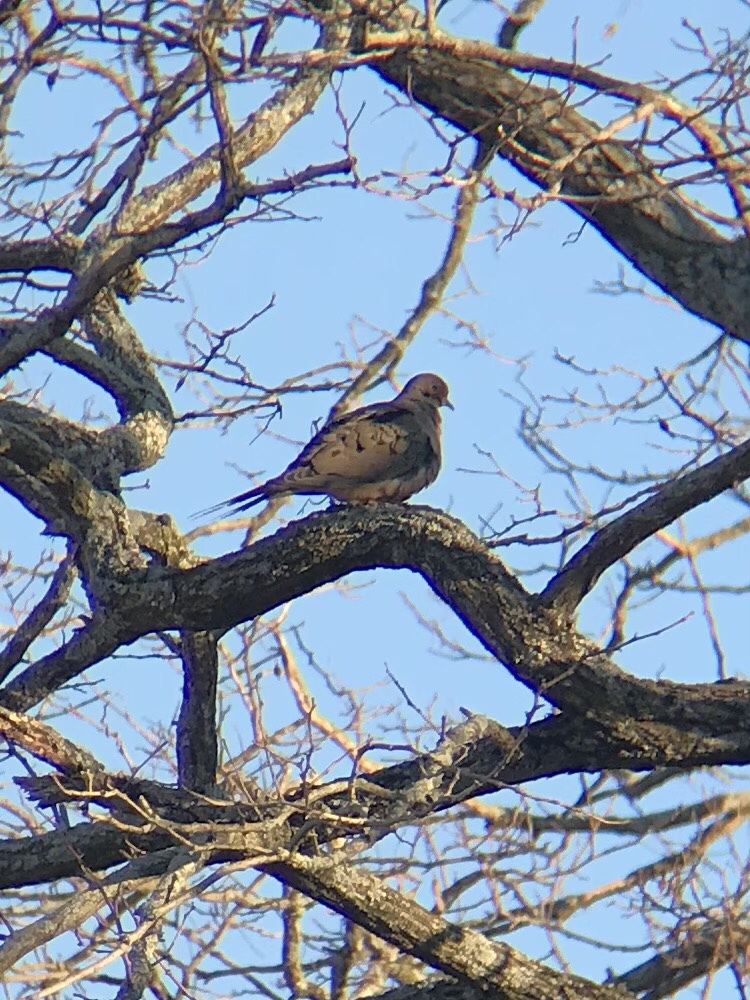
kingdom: Animalia
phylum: Chordata
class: Aves
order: Columbiformes
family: Columbidae
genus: Zenaida
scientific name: Zenaida macroura
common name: Mourning dove
